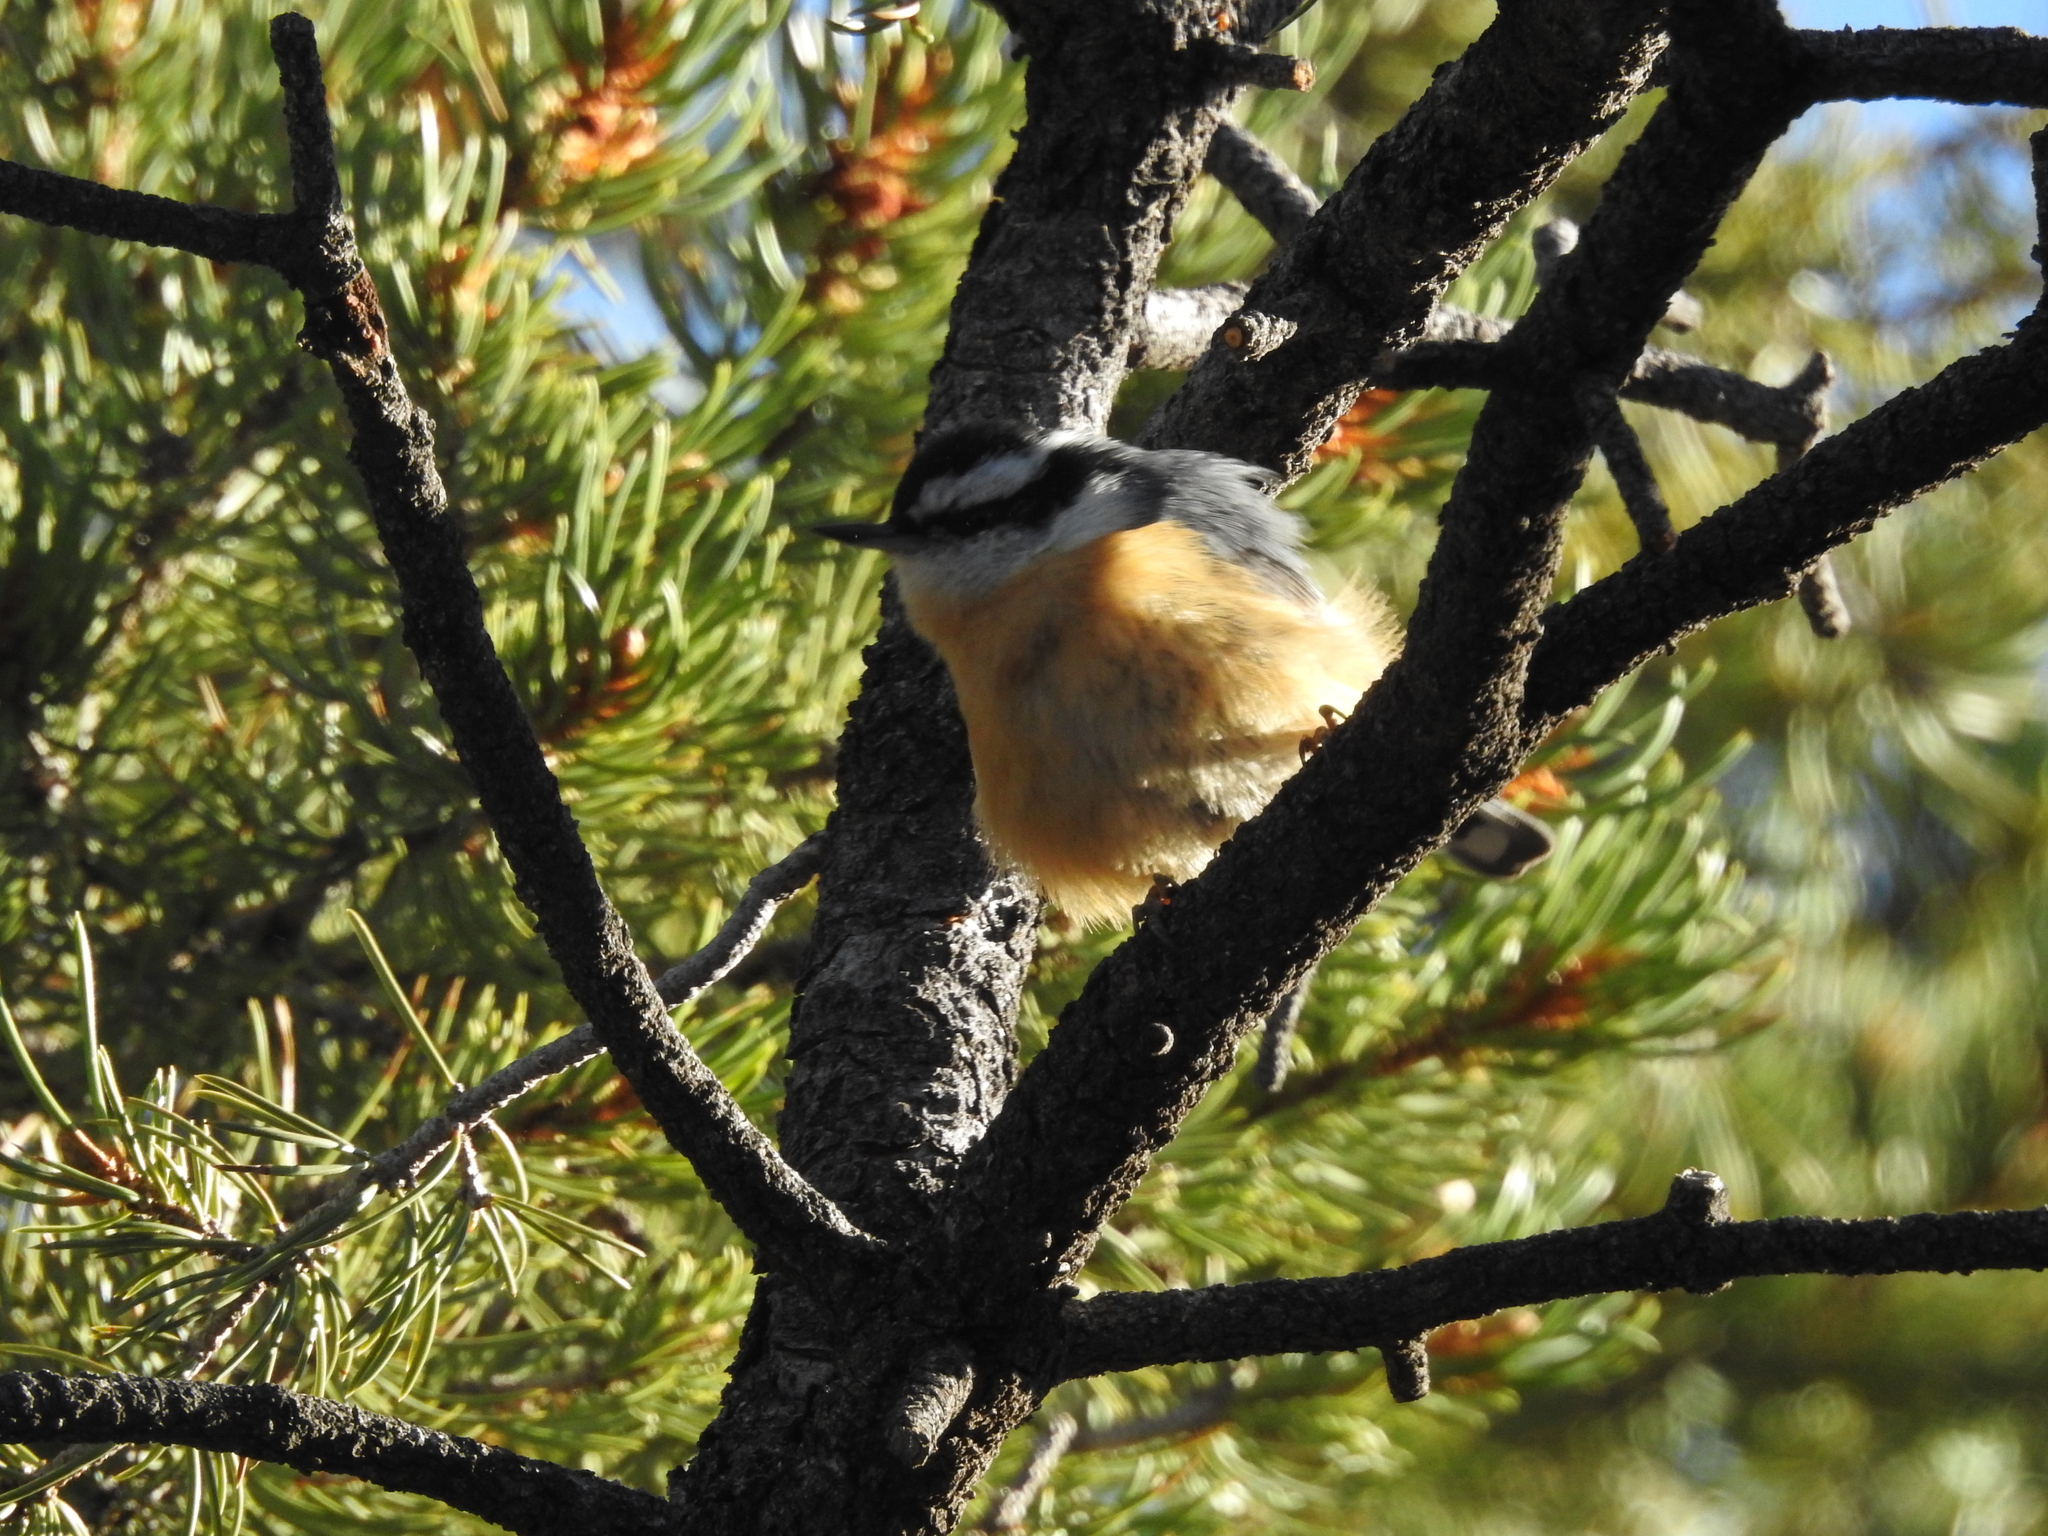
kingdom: Animalia
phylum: Chordata
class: Aves
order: Passeriformes
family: Sittidae
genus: Sitta
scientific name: Sitta canadensis
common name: Red-breasted nuthatch
